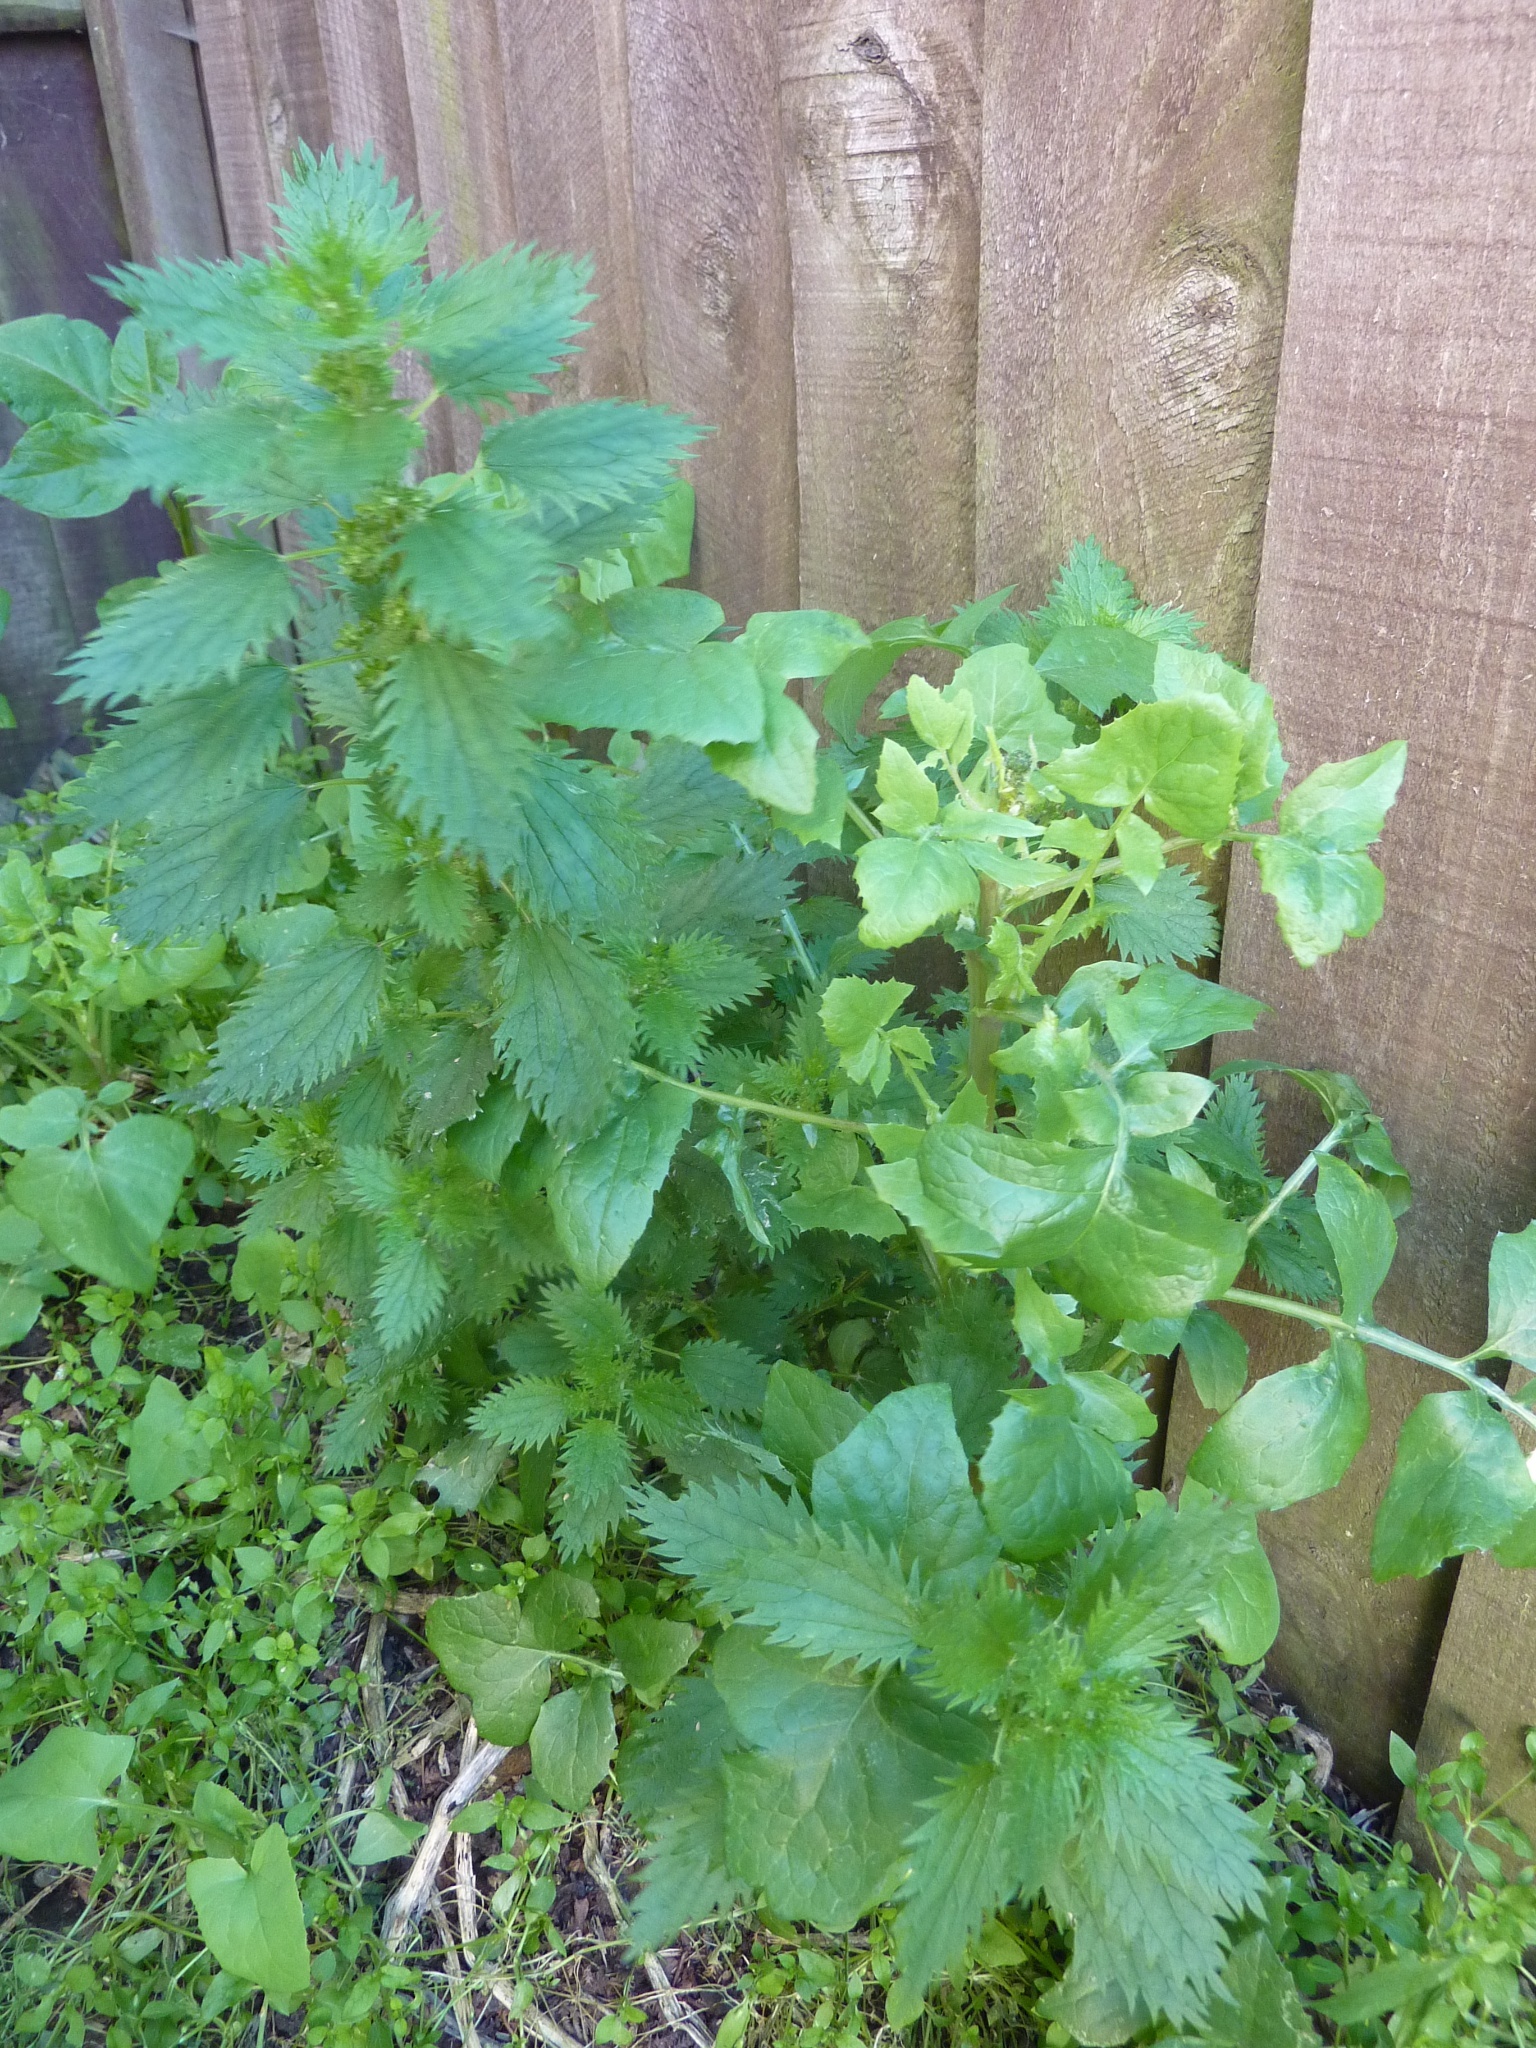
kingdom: Plantae
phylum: Tracheophyta
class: Magnoliopsida
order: Rosales
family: Urticaceae
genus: Urtica
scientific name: Urtica urens
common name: Dwarf nettle
